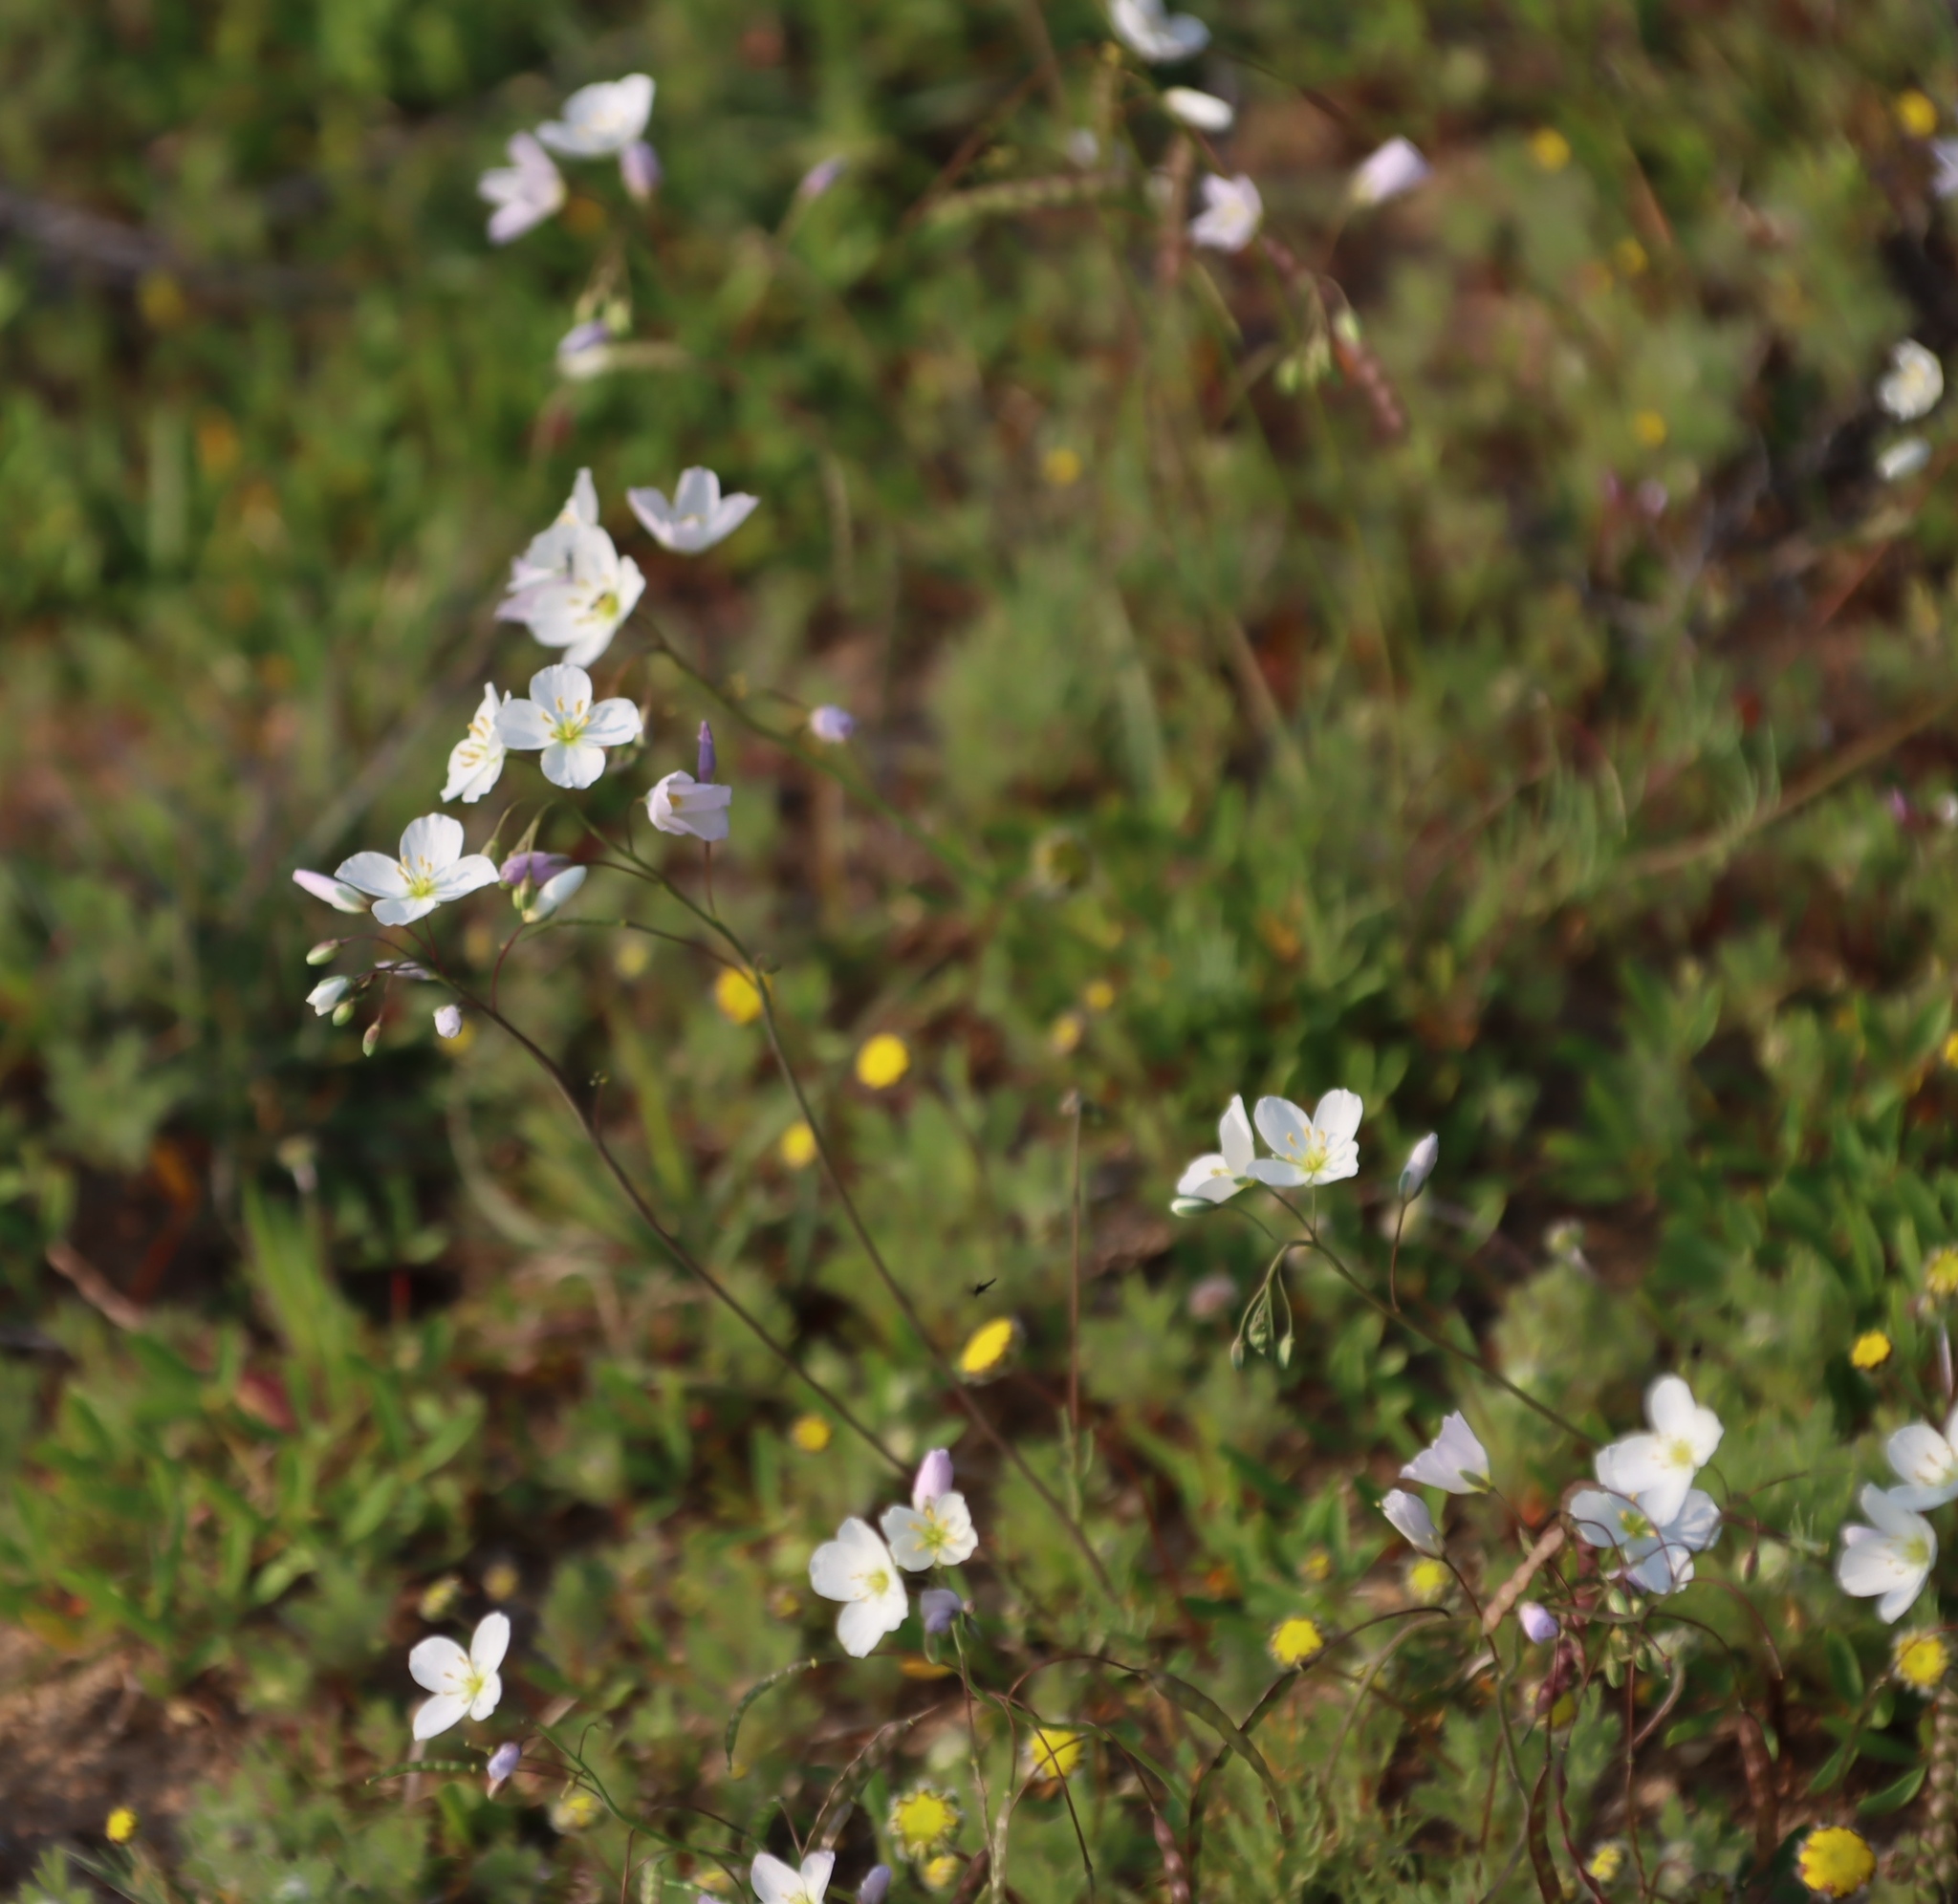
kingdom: Plantae
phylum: Tracheophyta
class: Magnoliopsida
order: Brassicales
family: Brassicaceae
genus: Heliophila
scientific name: Heliophila variabilis
